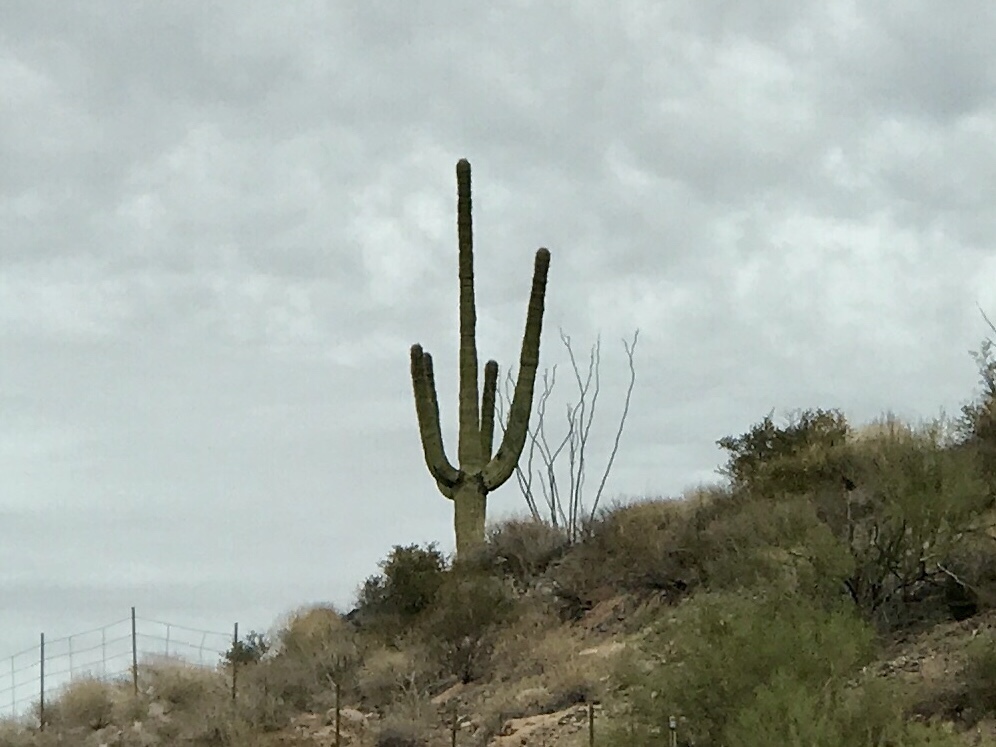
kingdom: Plantae
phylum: Tracheophyta
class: Magnoliopsida
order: Caryophyllales
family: Cactaceae
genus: Carnegiea
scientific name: Carnegiea gigantea
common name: Saguaro
